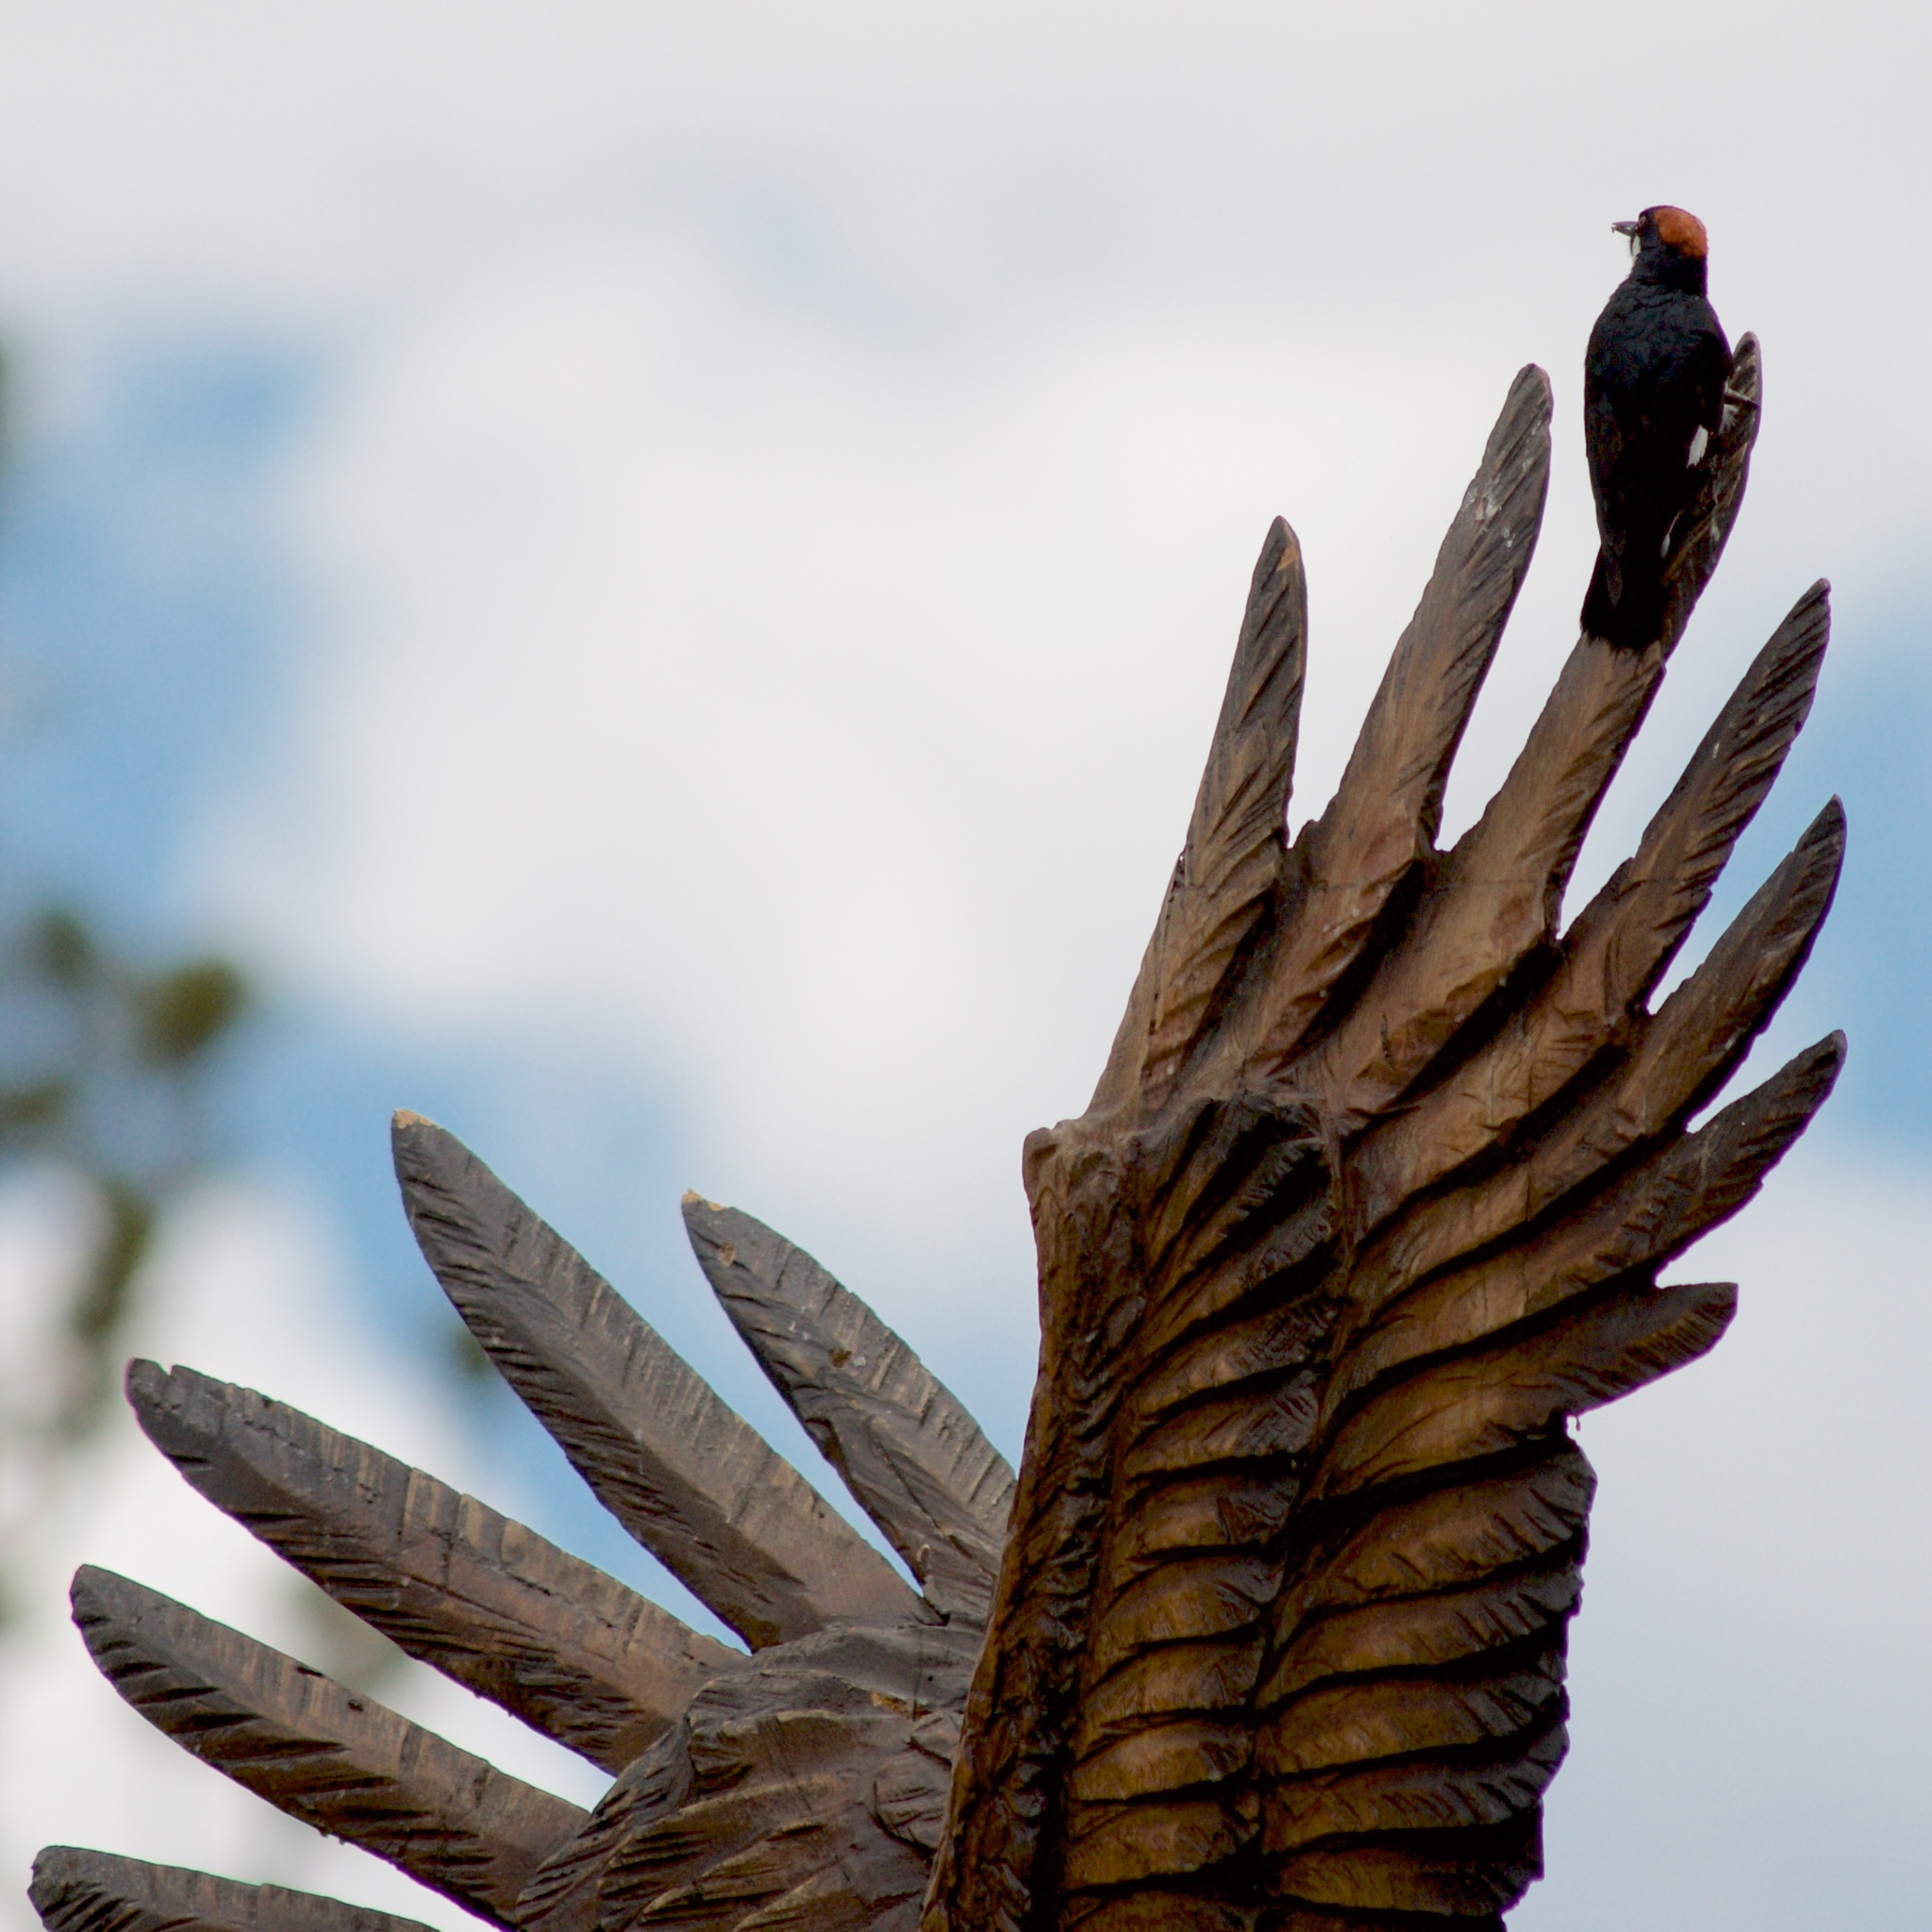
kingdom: Animalia
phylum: Chordata
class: Aves
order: Piciformes
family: Picidae
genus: Melanerpes
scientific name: Melanerpes formicivorus
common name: Acorn woodpecker
